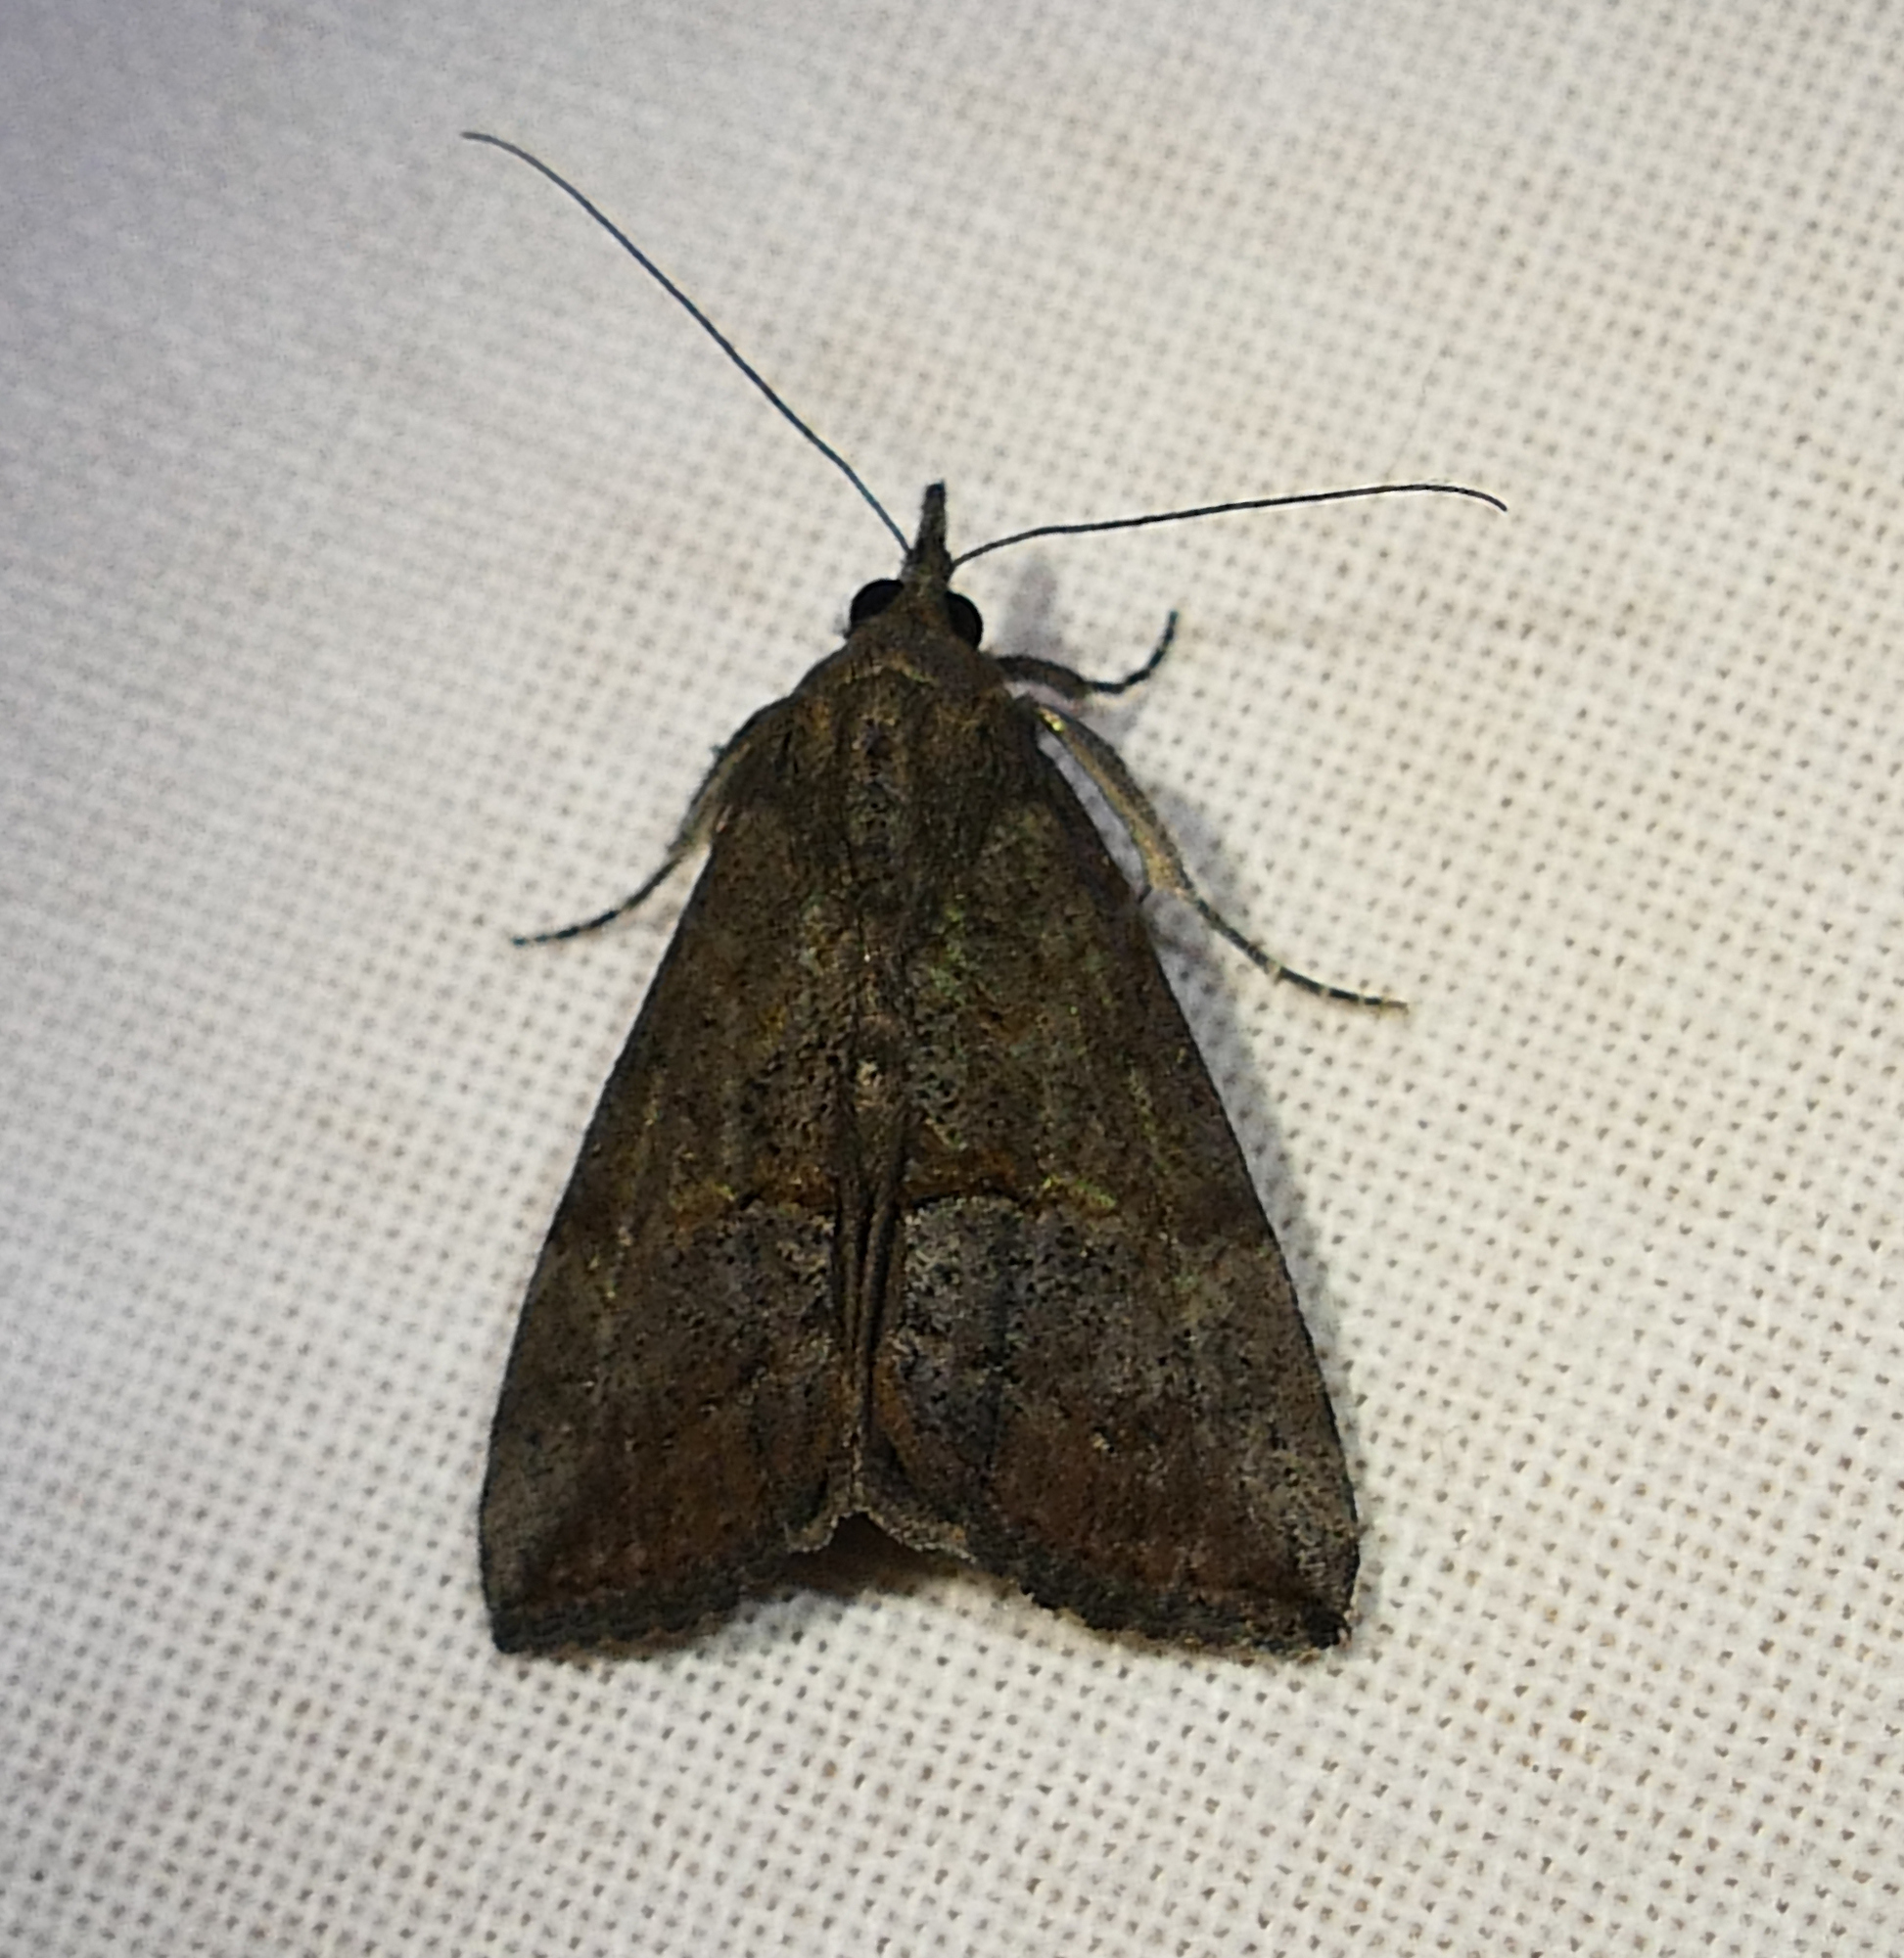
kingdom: Animalia
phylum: Arthropoda
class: Insecta
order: Lepidoptera
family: Erebidae
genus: Hypena
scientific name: Hypena scabra
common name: Green cloverworm
